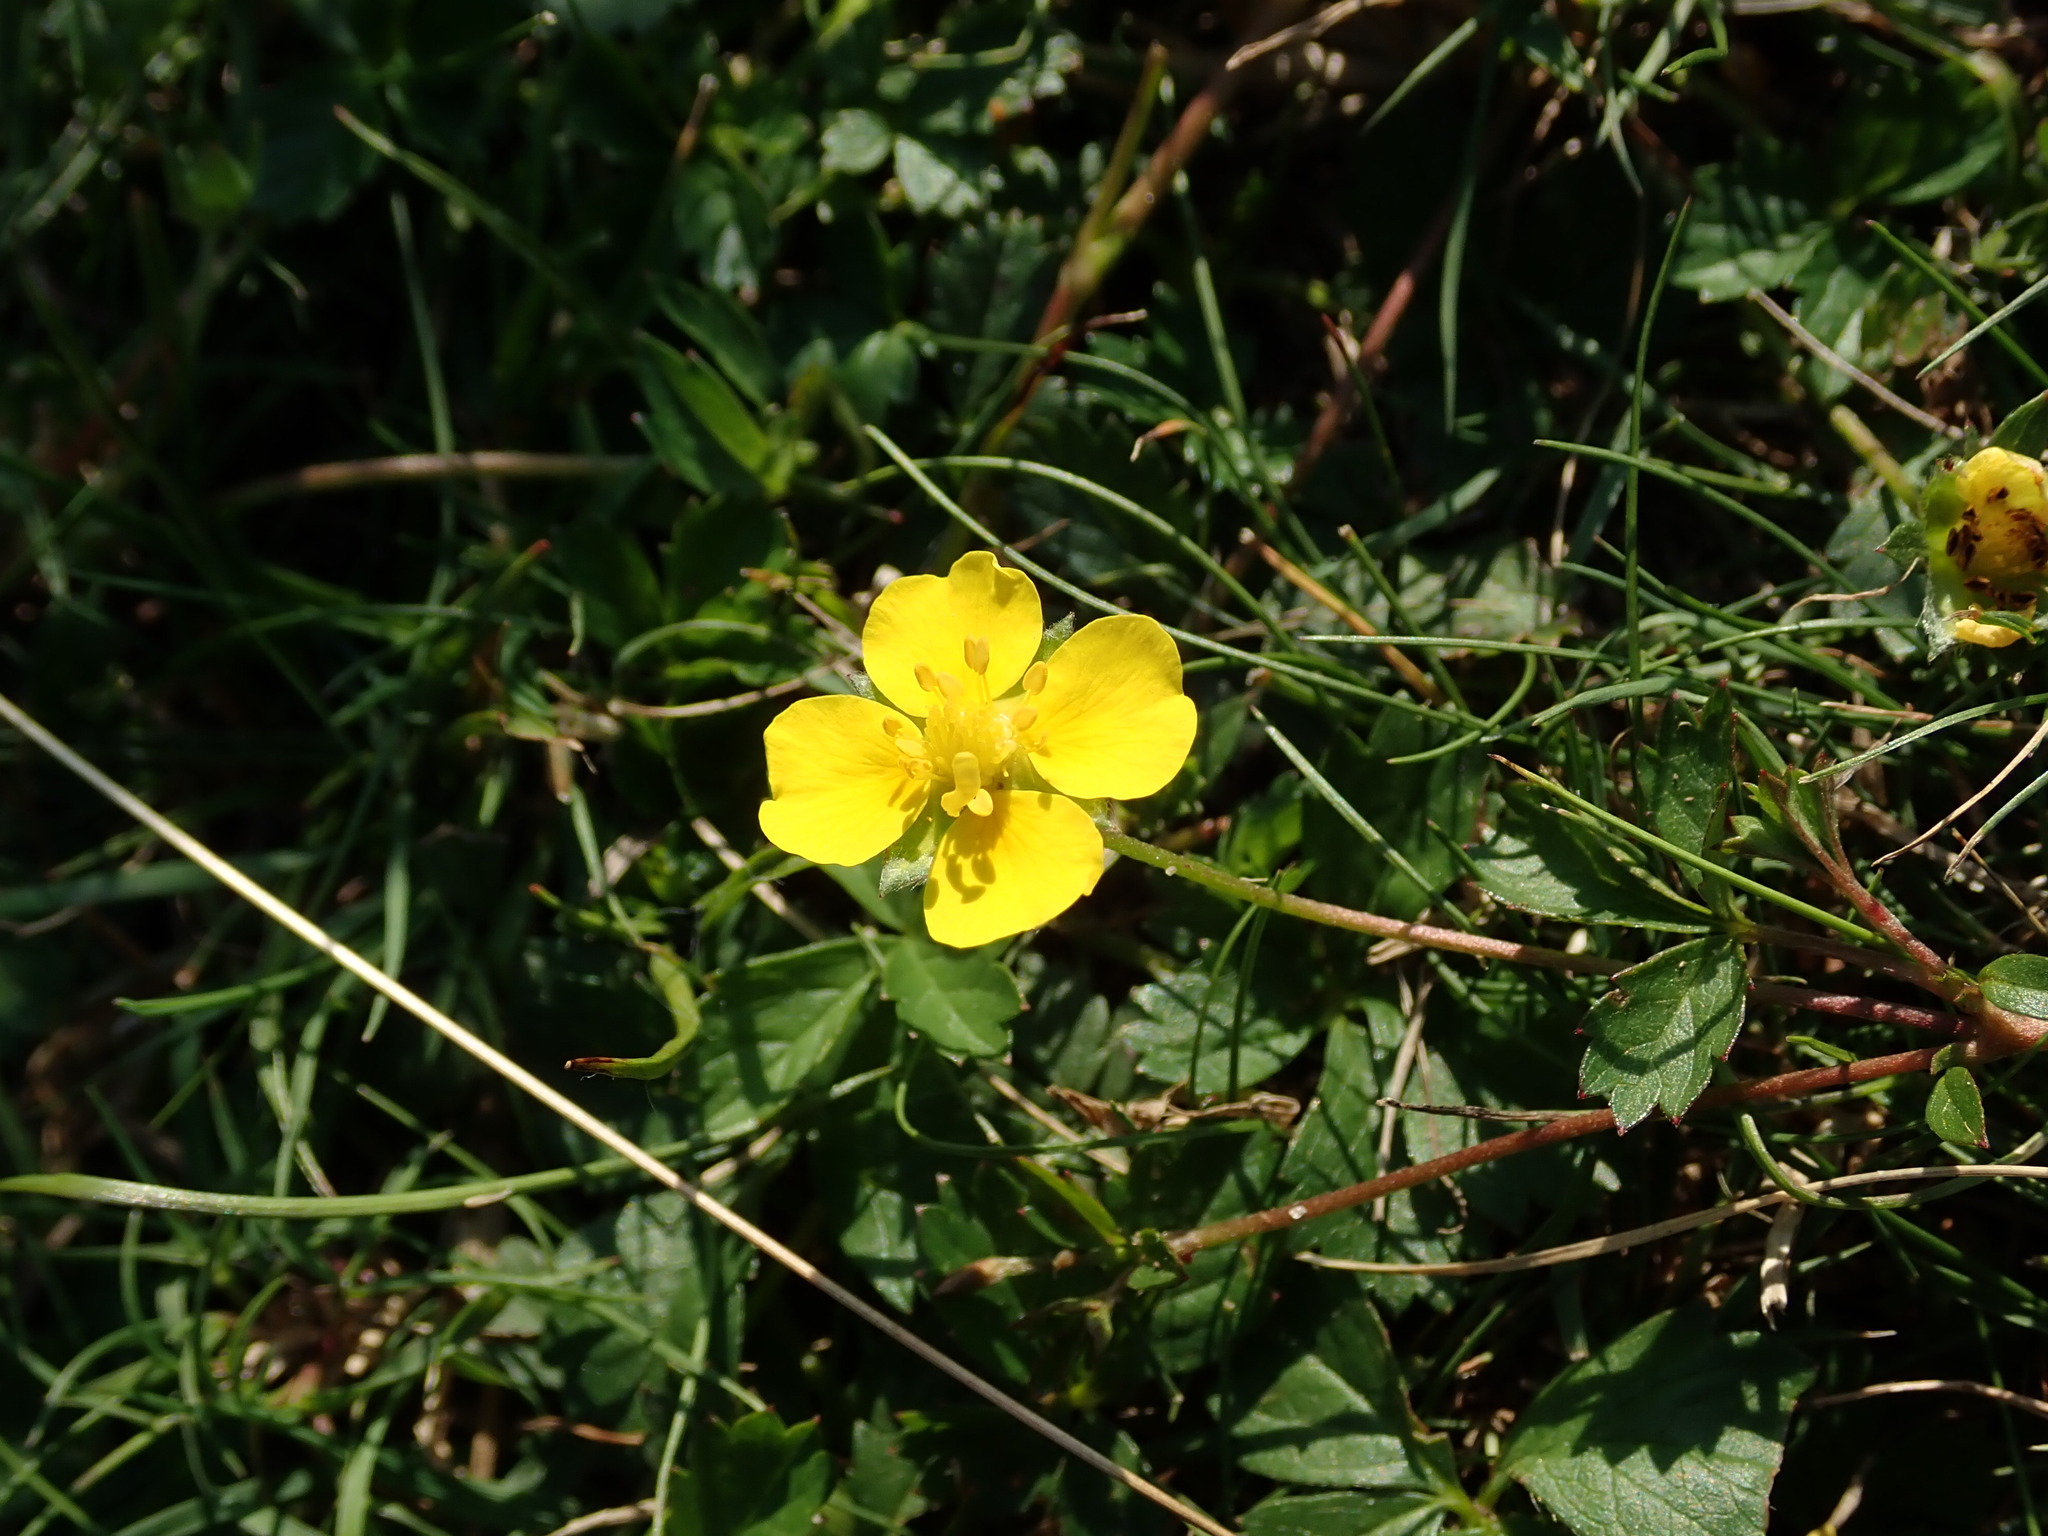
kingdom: Plantae
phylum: Tracheophyta
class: Magnoliopsida
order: Rosales
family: Rosaceae
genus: Potentilla
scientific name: Potentilla erecta
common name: Tormentil
